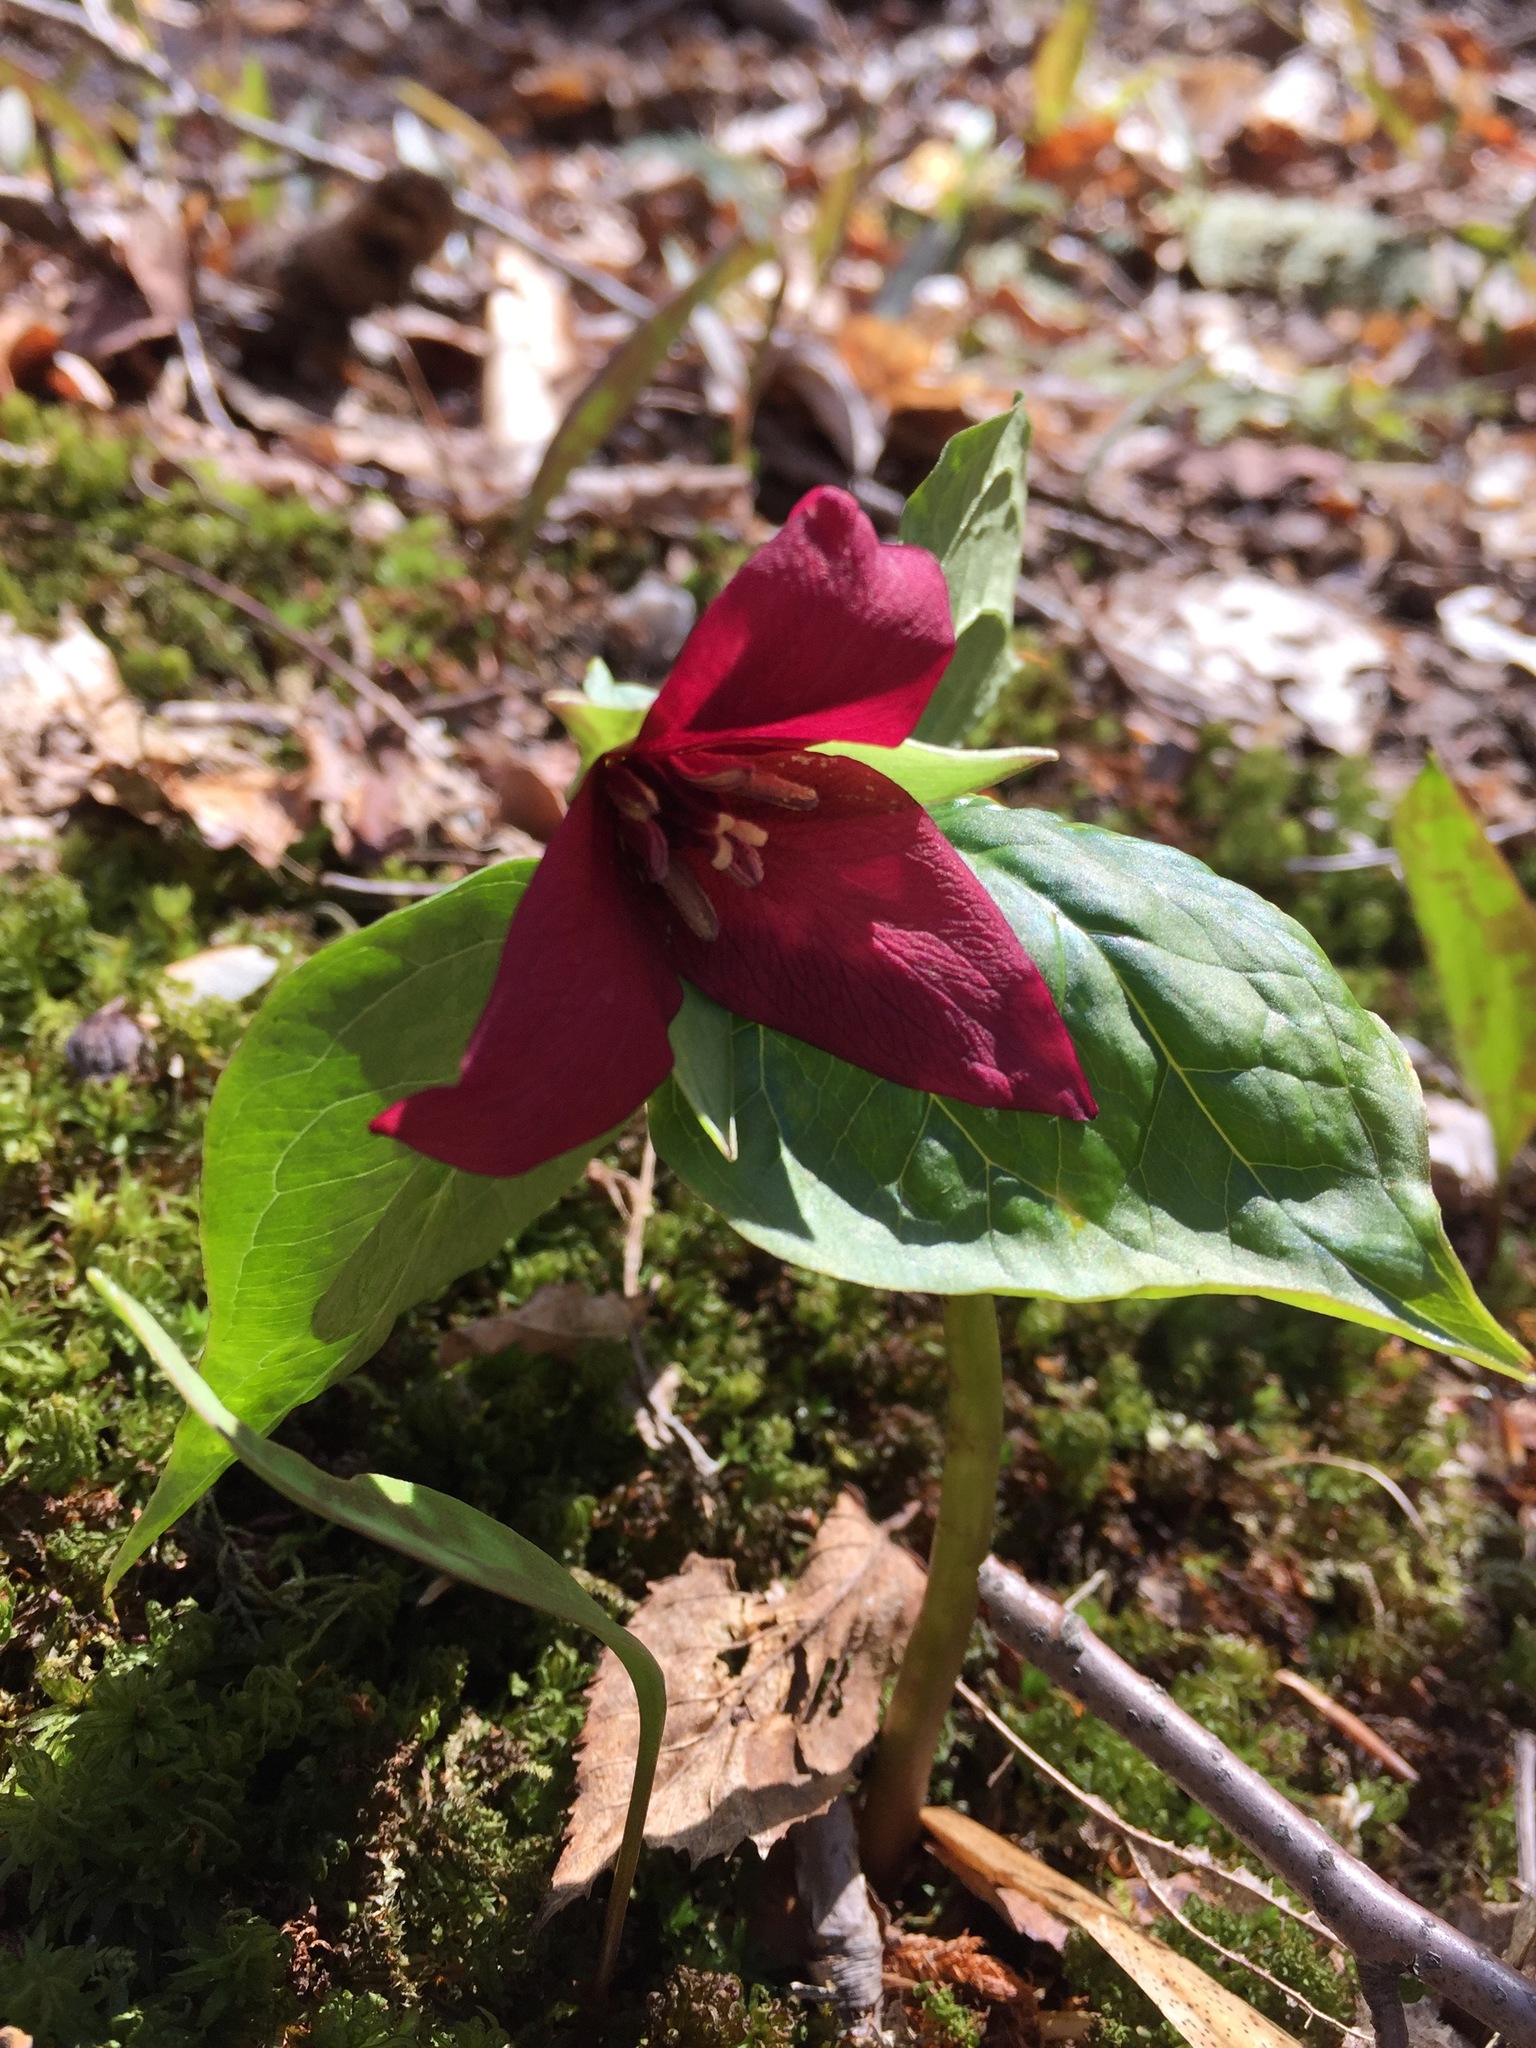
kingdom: Plantae
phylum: Tracheophyta
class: Liliopsida
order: Liliales
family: Melanthiaceae
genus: Trillium
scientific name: Trillium erectum
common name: Purple trillium
